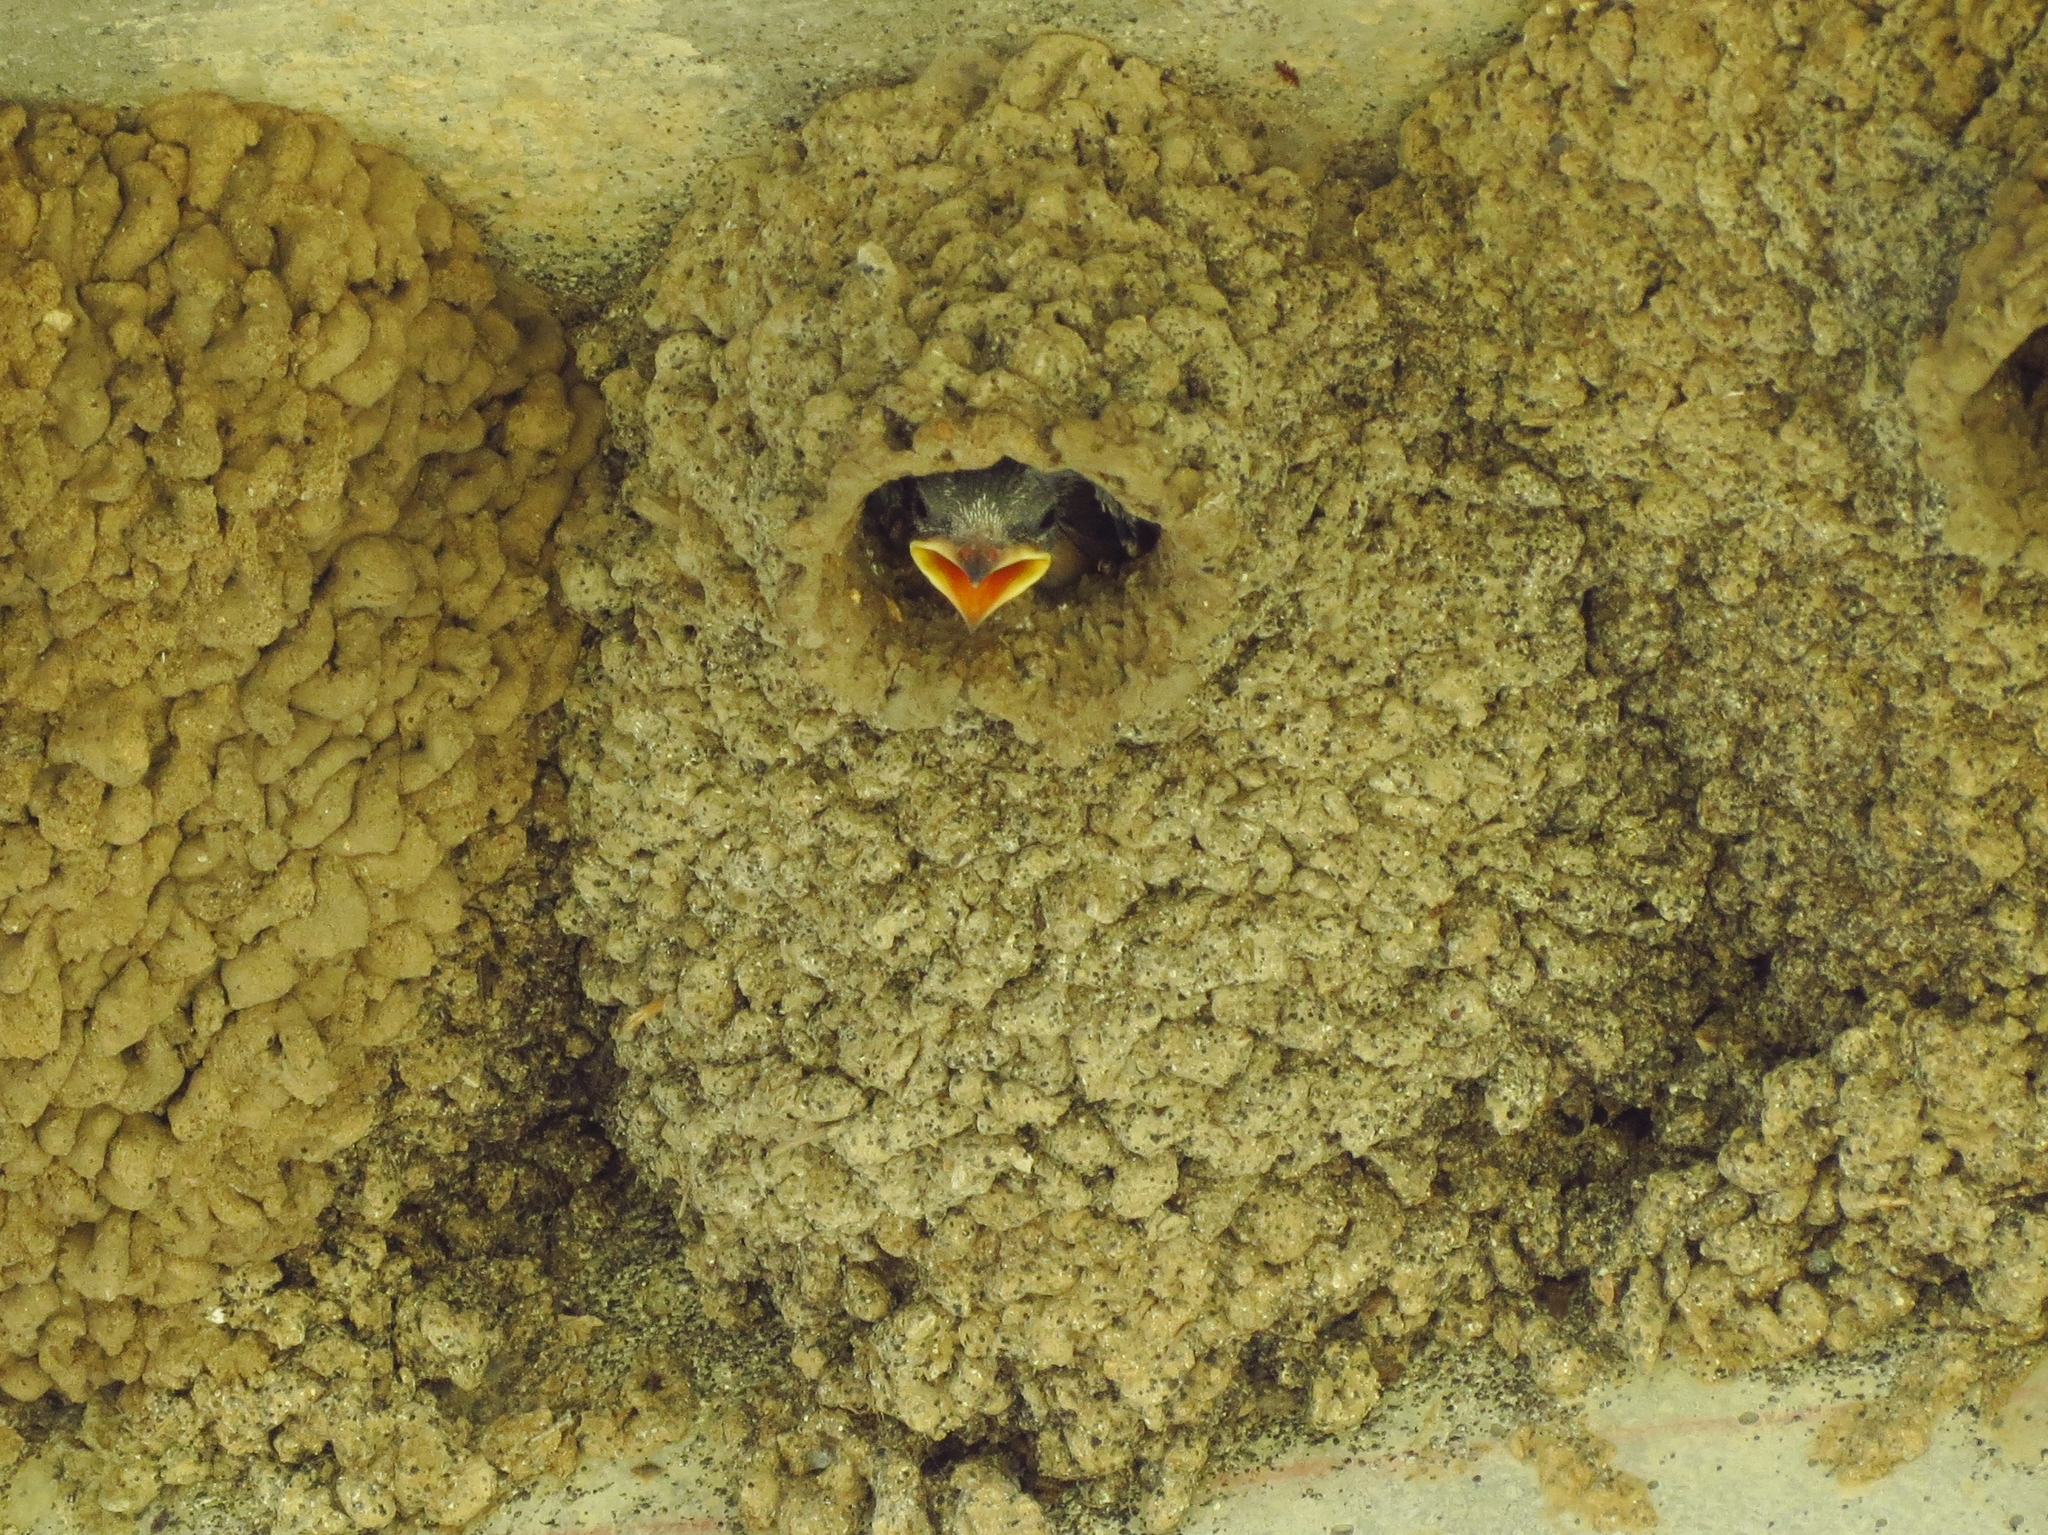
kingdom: Animalia
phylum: Chordata
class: Aves
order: Passeriformes
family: Hirundinidae
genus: Petrochelidon
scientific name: Petrochelidon pyrrhonota
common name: American cliff swallow
